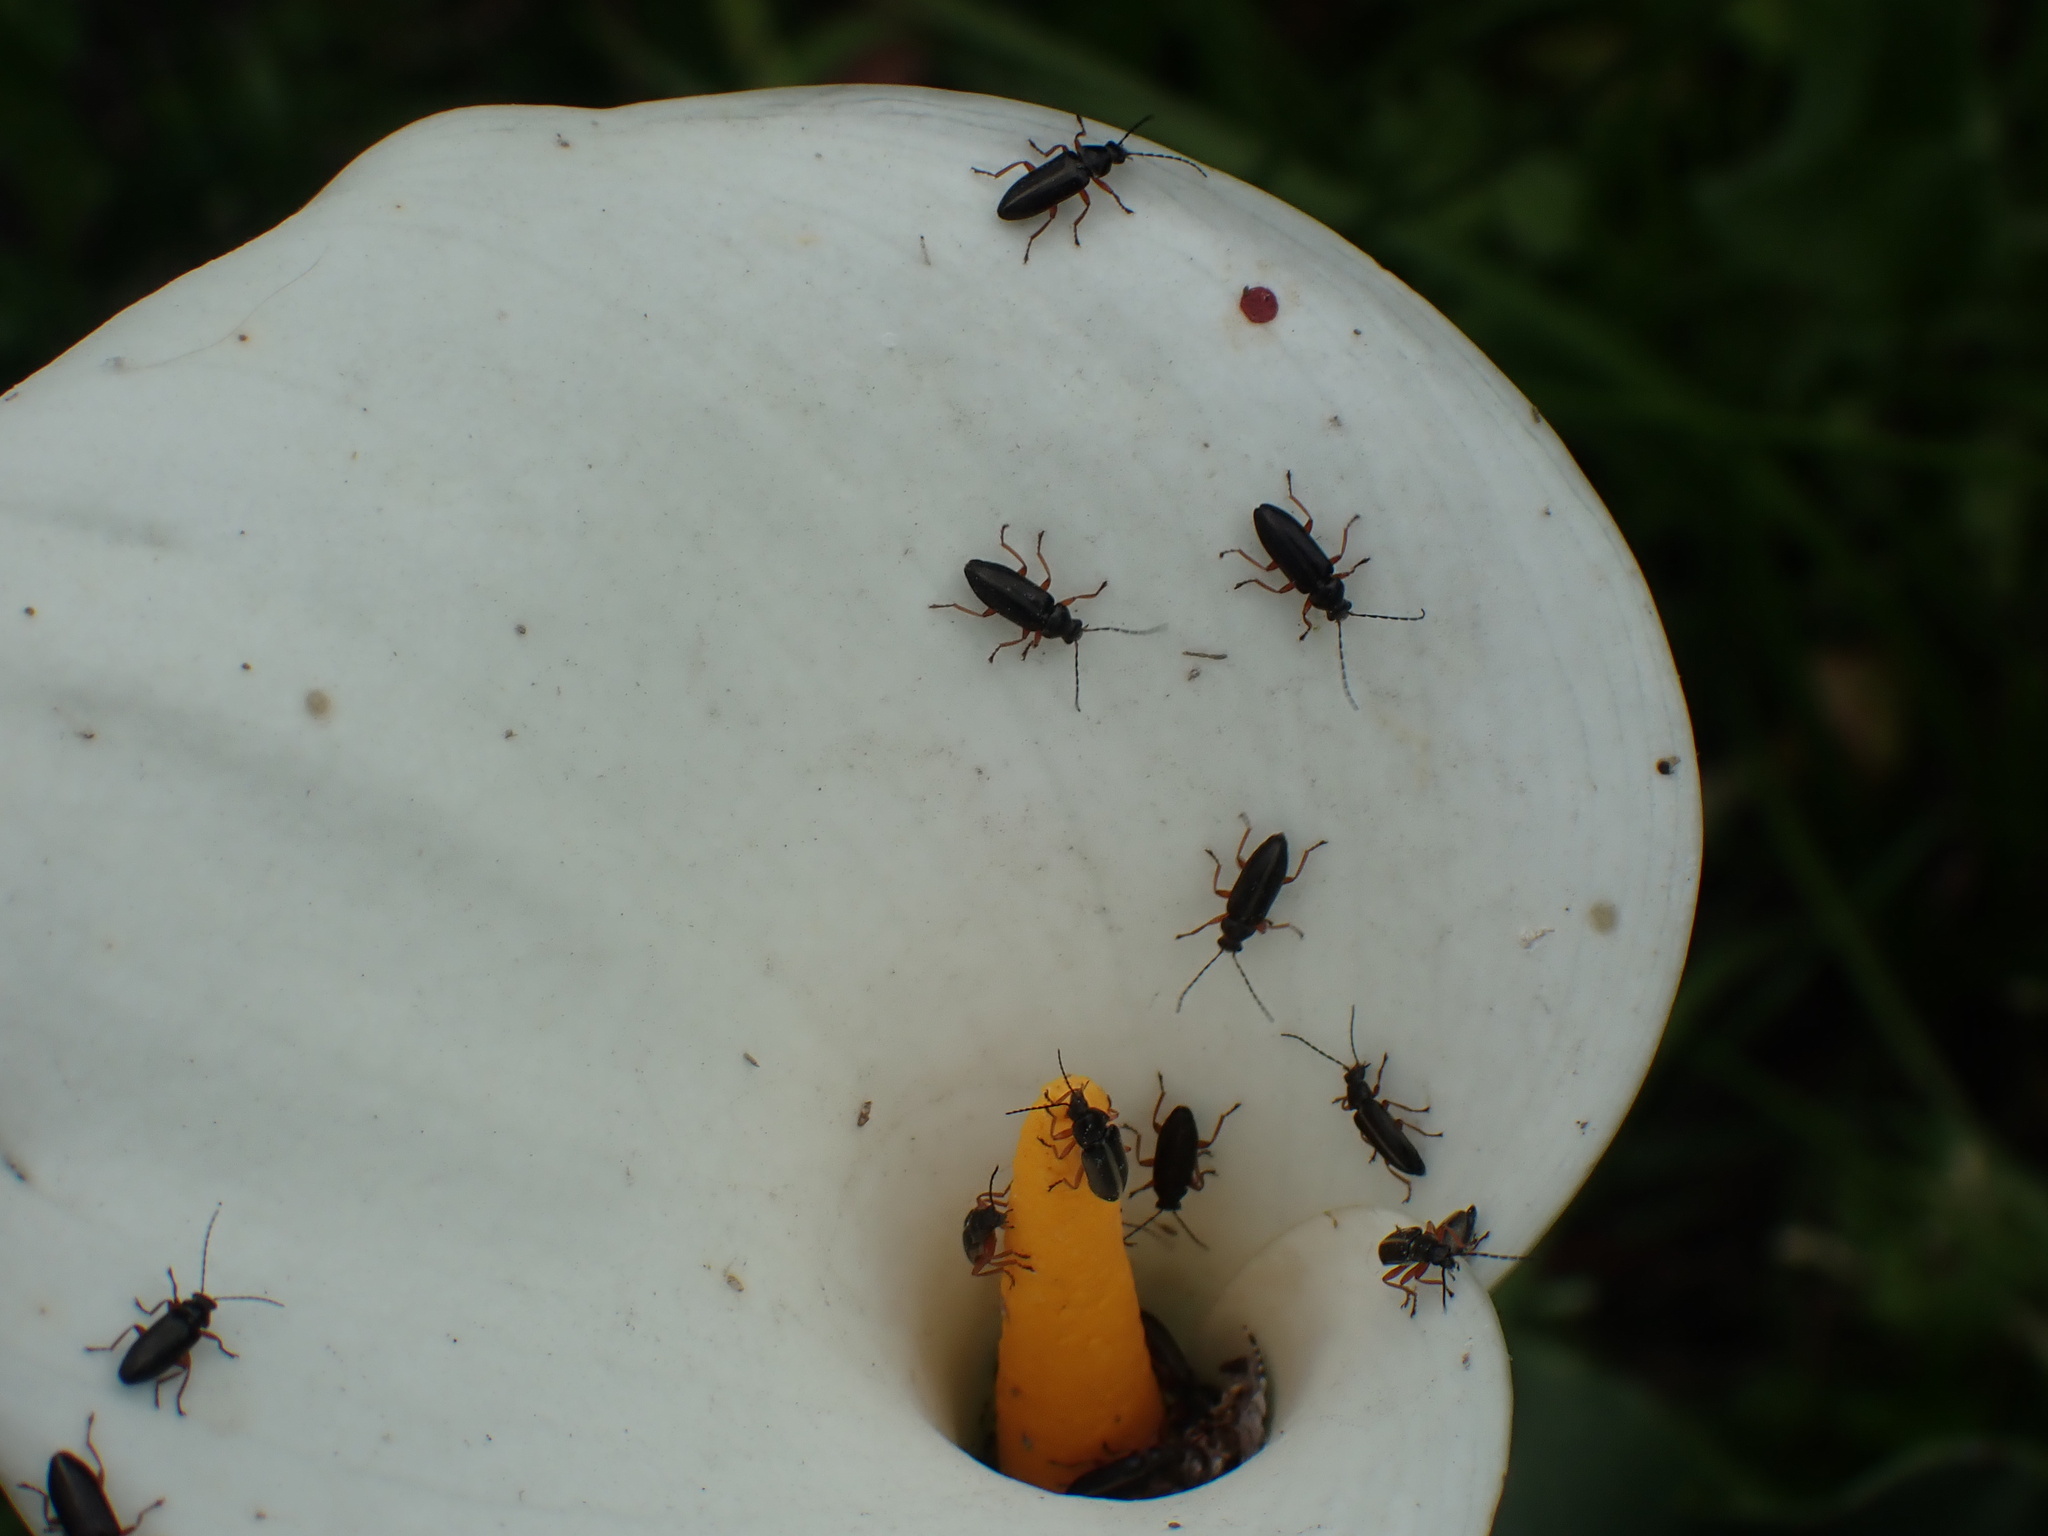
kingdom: Plantae
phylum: Tracheophyta
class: Liliopsida
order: Alismatales
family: Araceae
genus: Zantedeschia
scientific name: Zantedeschia aethiopica
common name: Altar-lily
